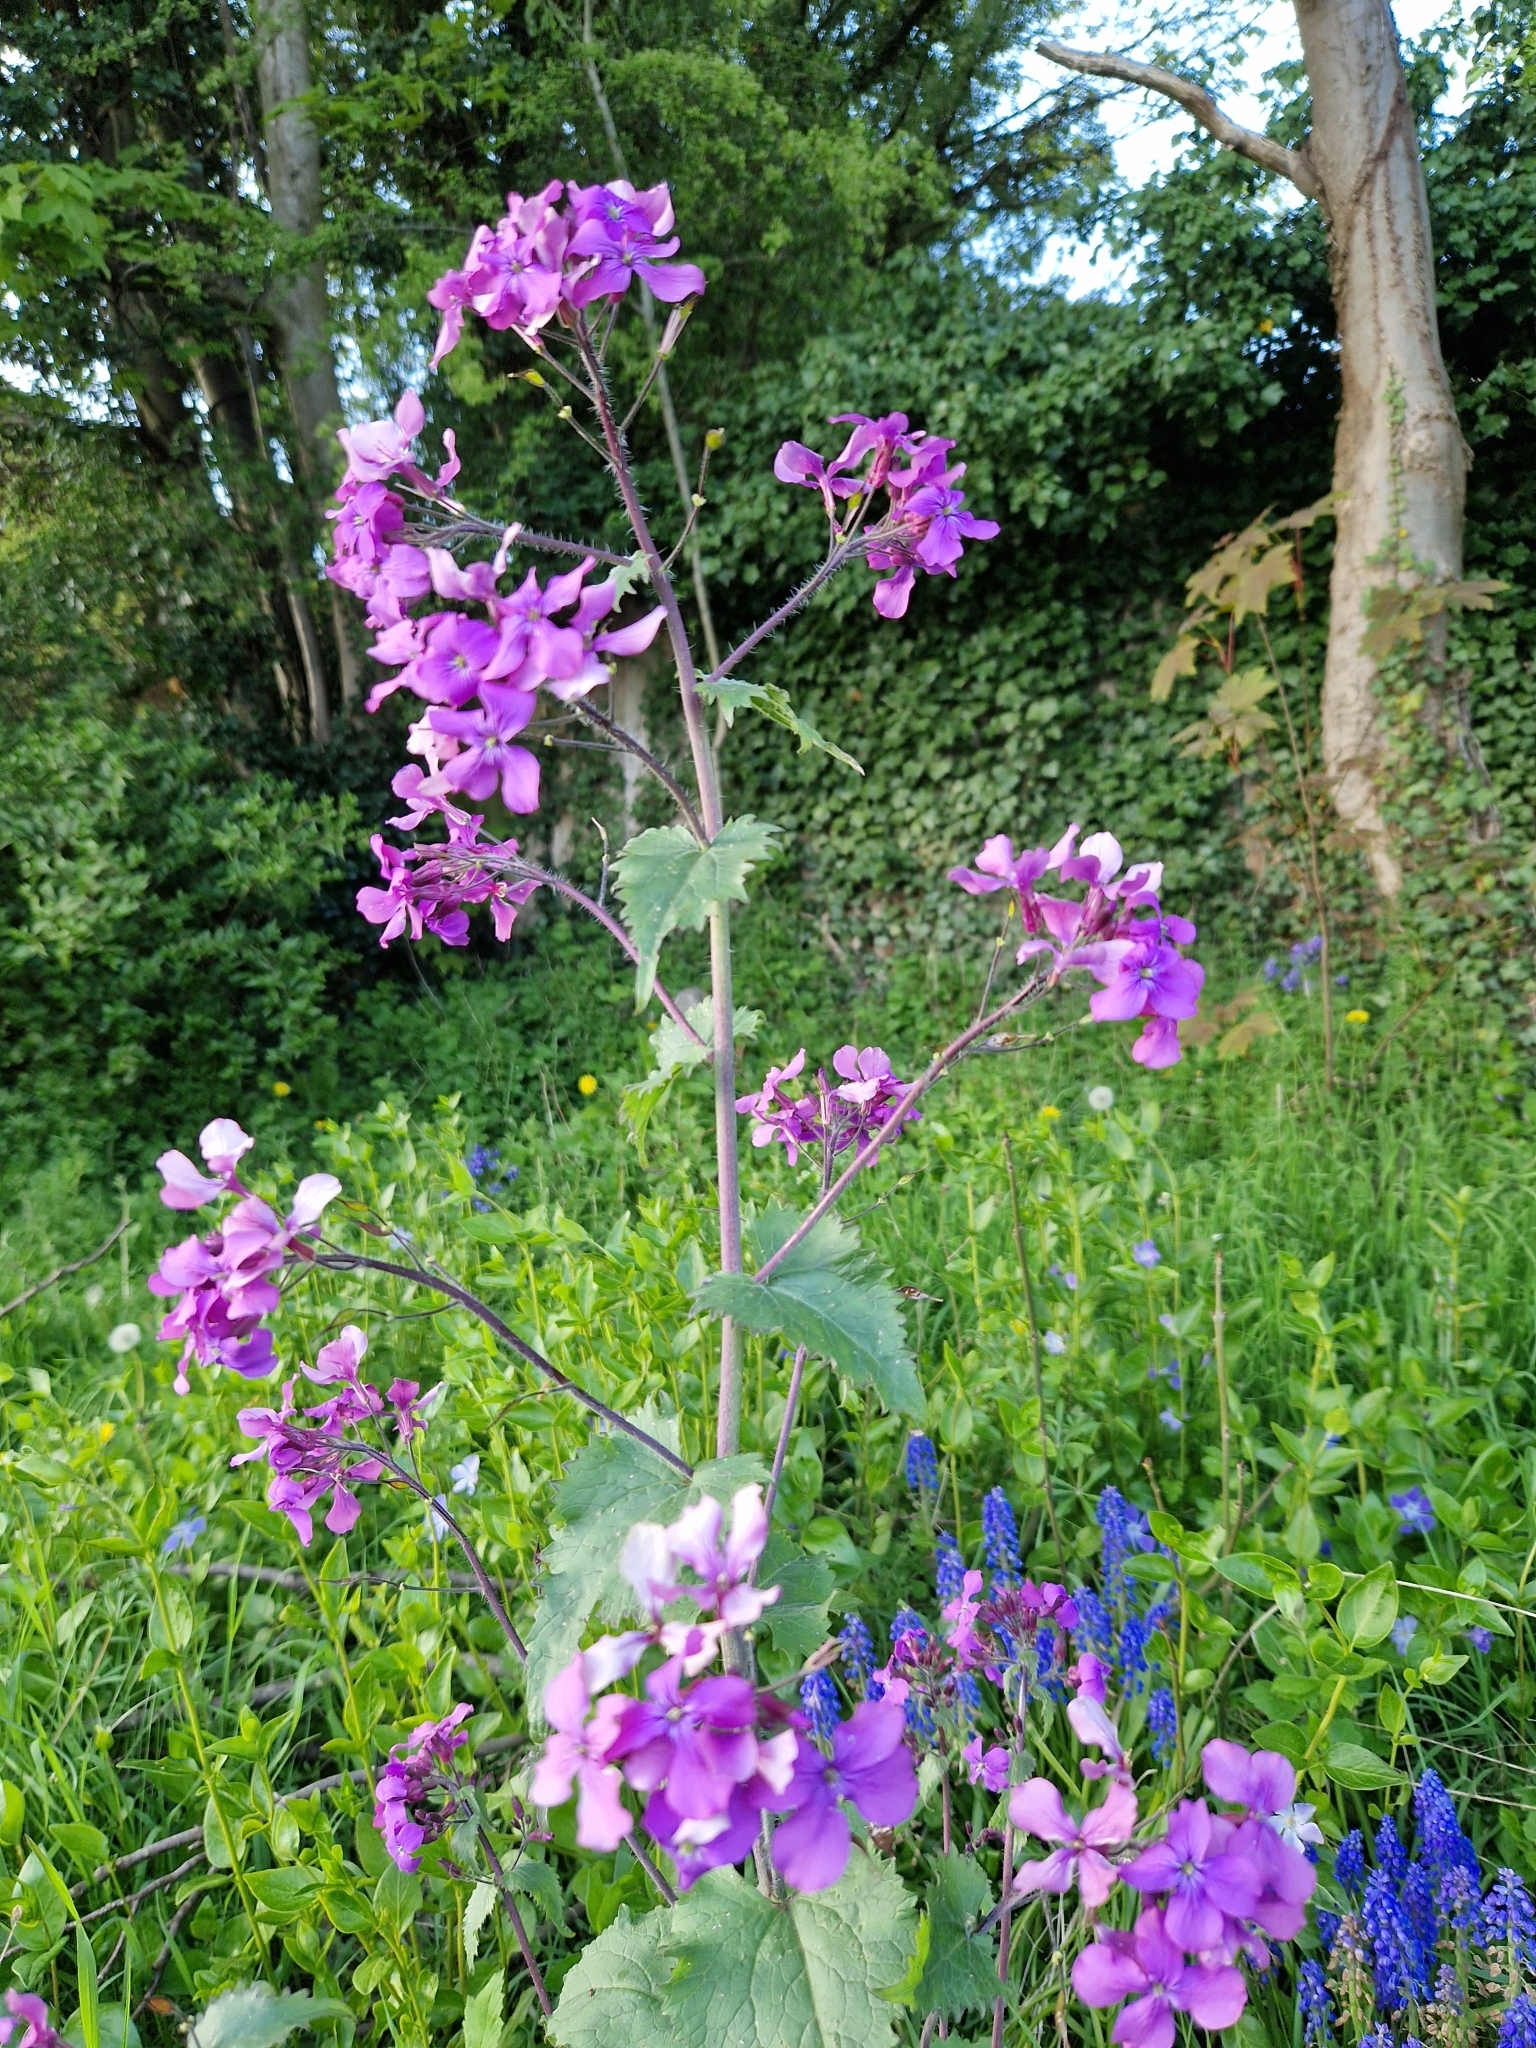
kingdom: Plantae
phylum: Tracheophyta
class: Magnoliopsida
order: Brassicales
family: Brassicaceae
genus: Lunaria
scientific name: Lunaria annua
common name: Honesty
